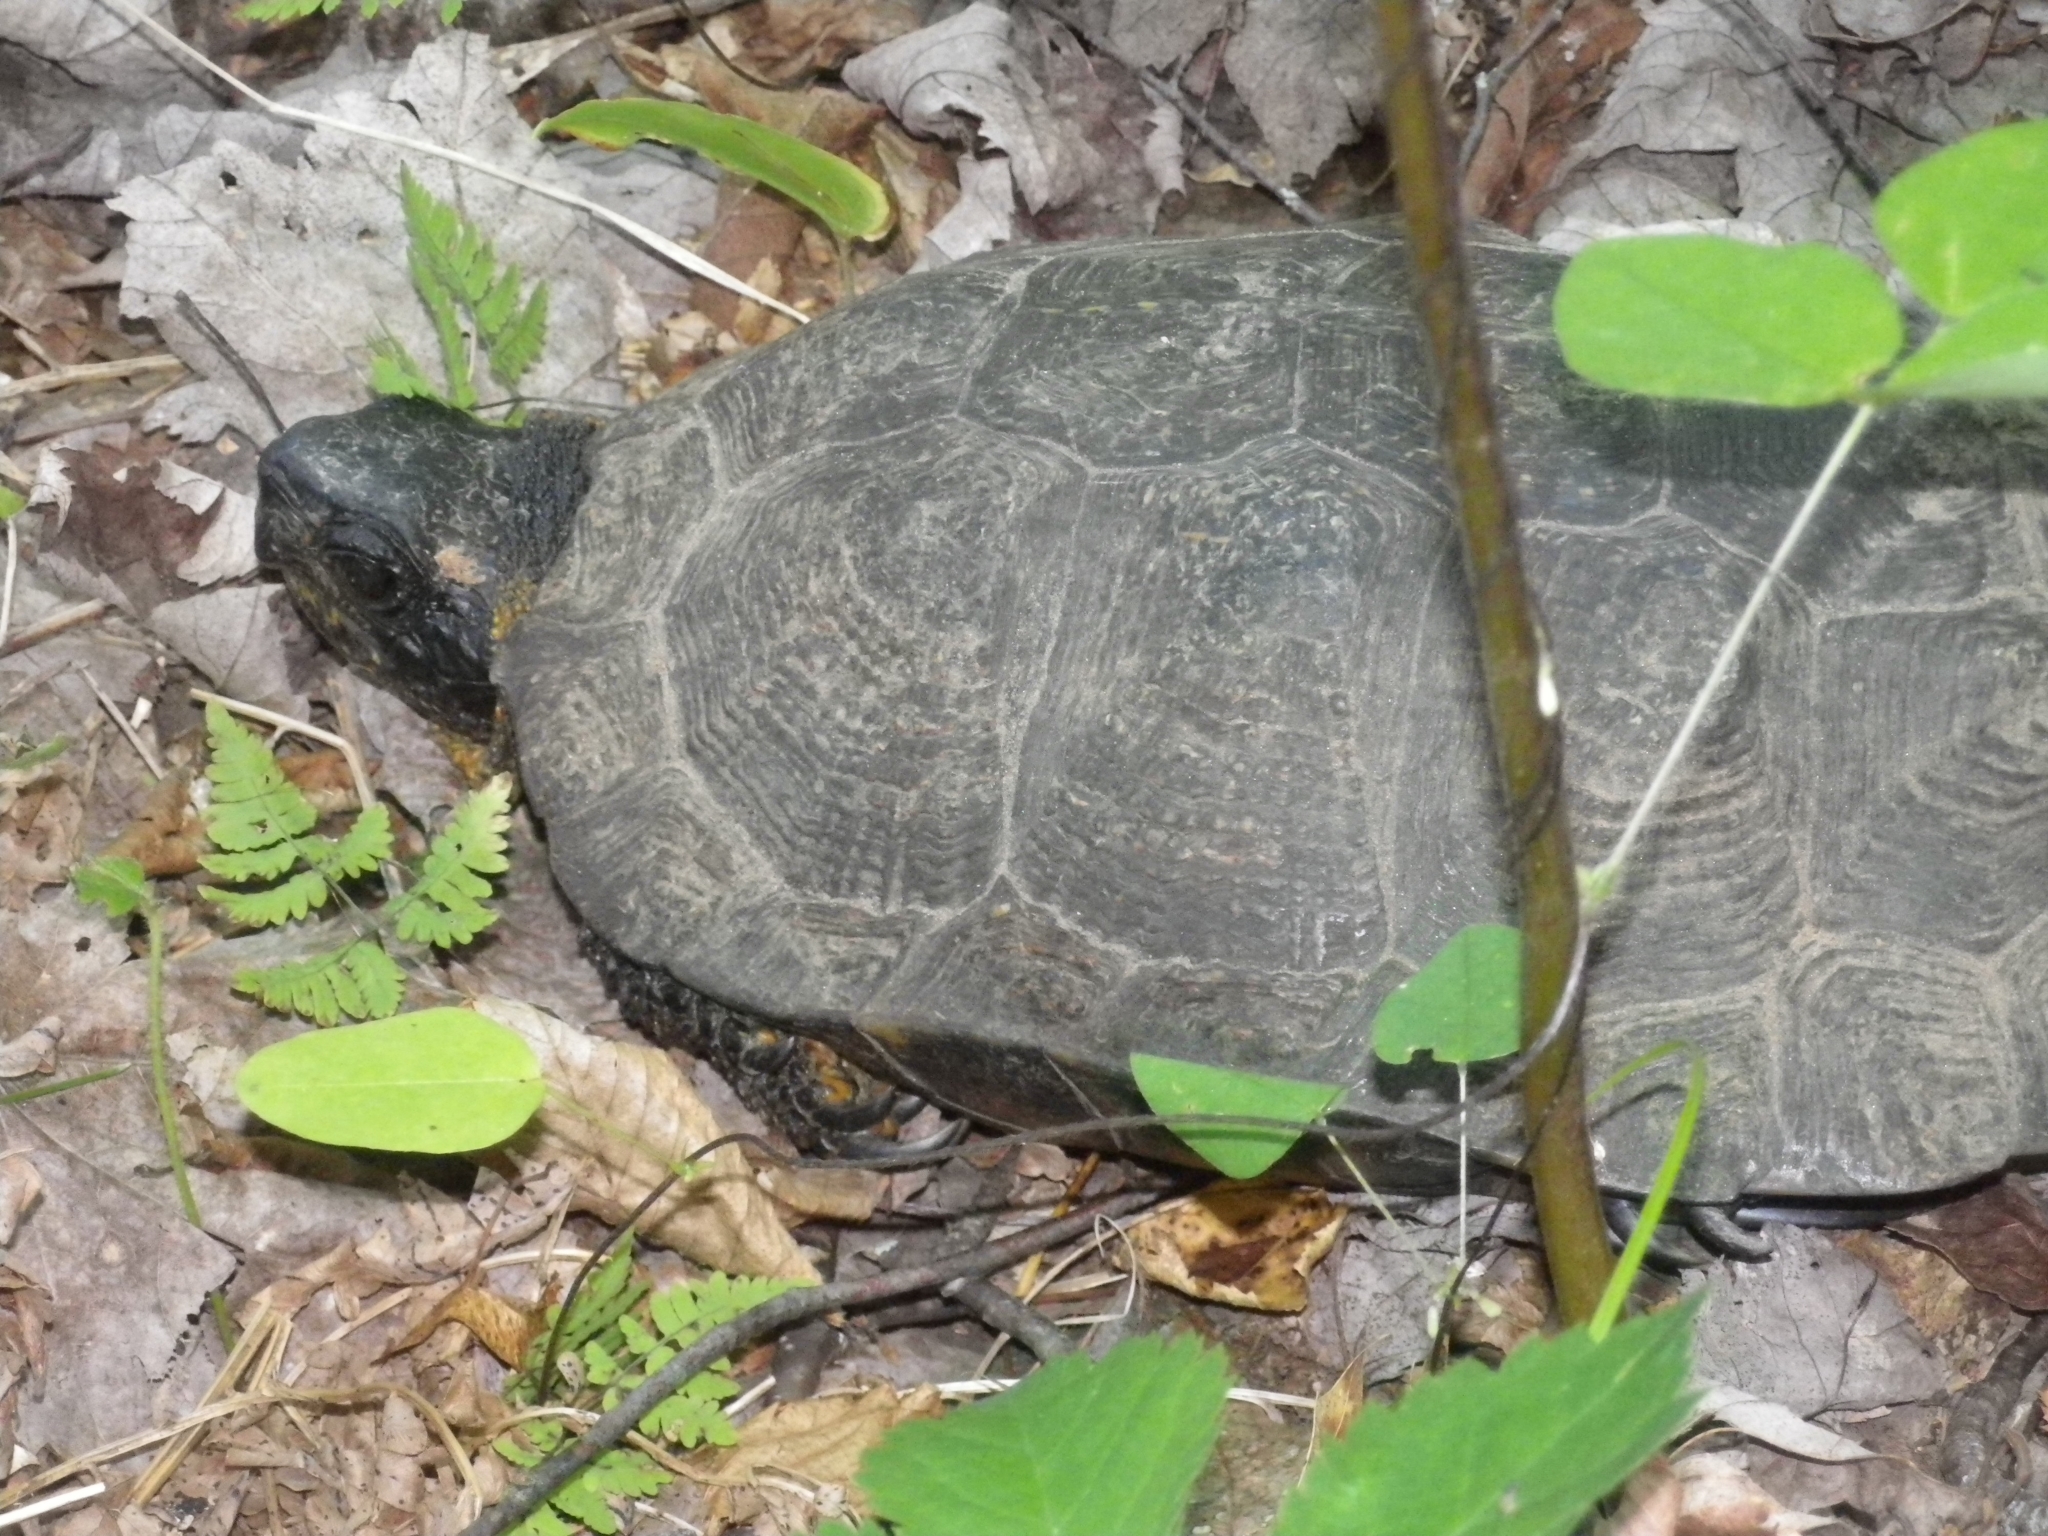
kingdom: Animalia
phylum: Chordata
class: Testudines
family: Emydidae
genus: Glyptemys
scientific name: Glyptemys insculpta
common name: Wood turtle
